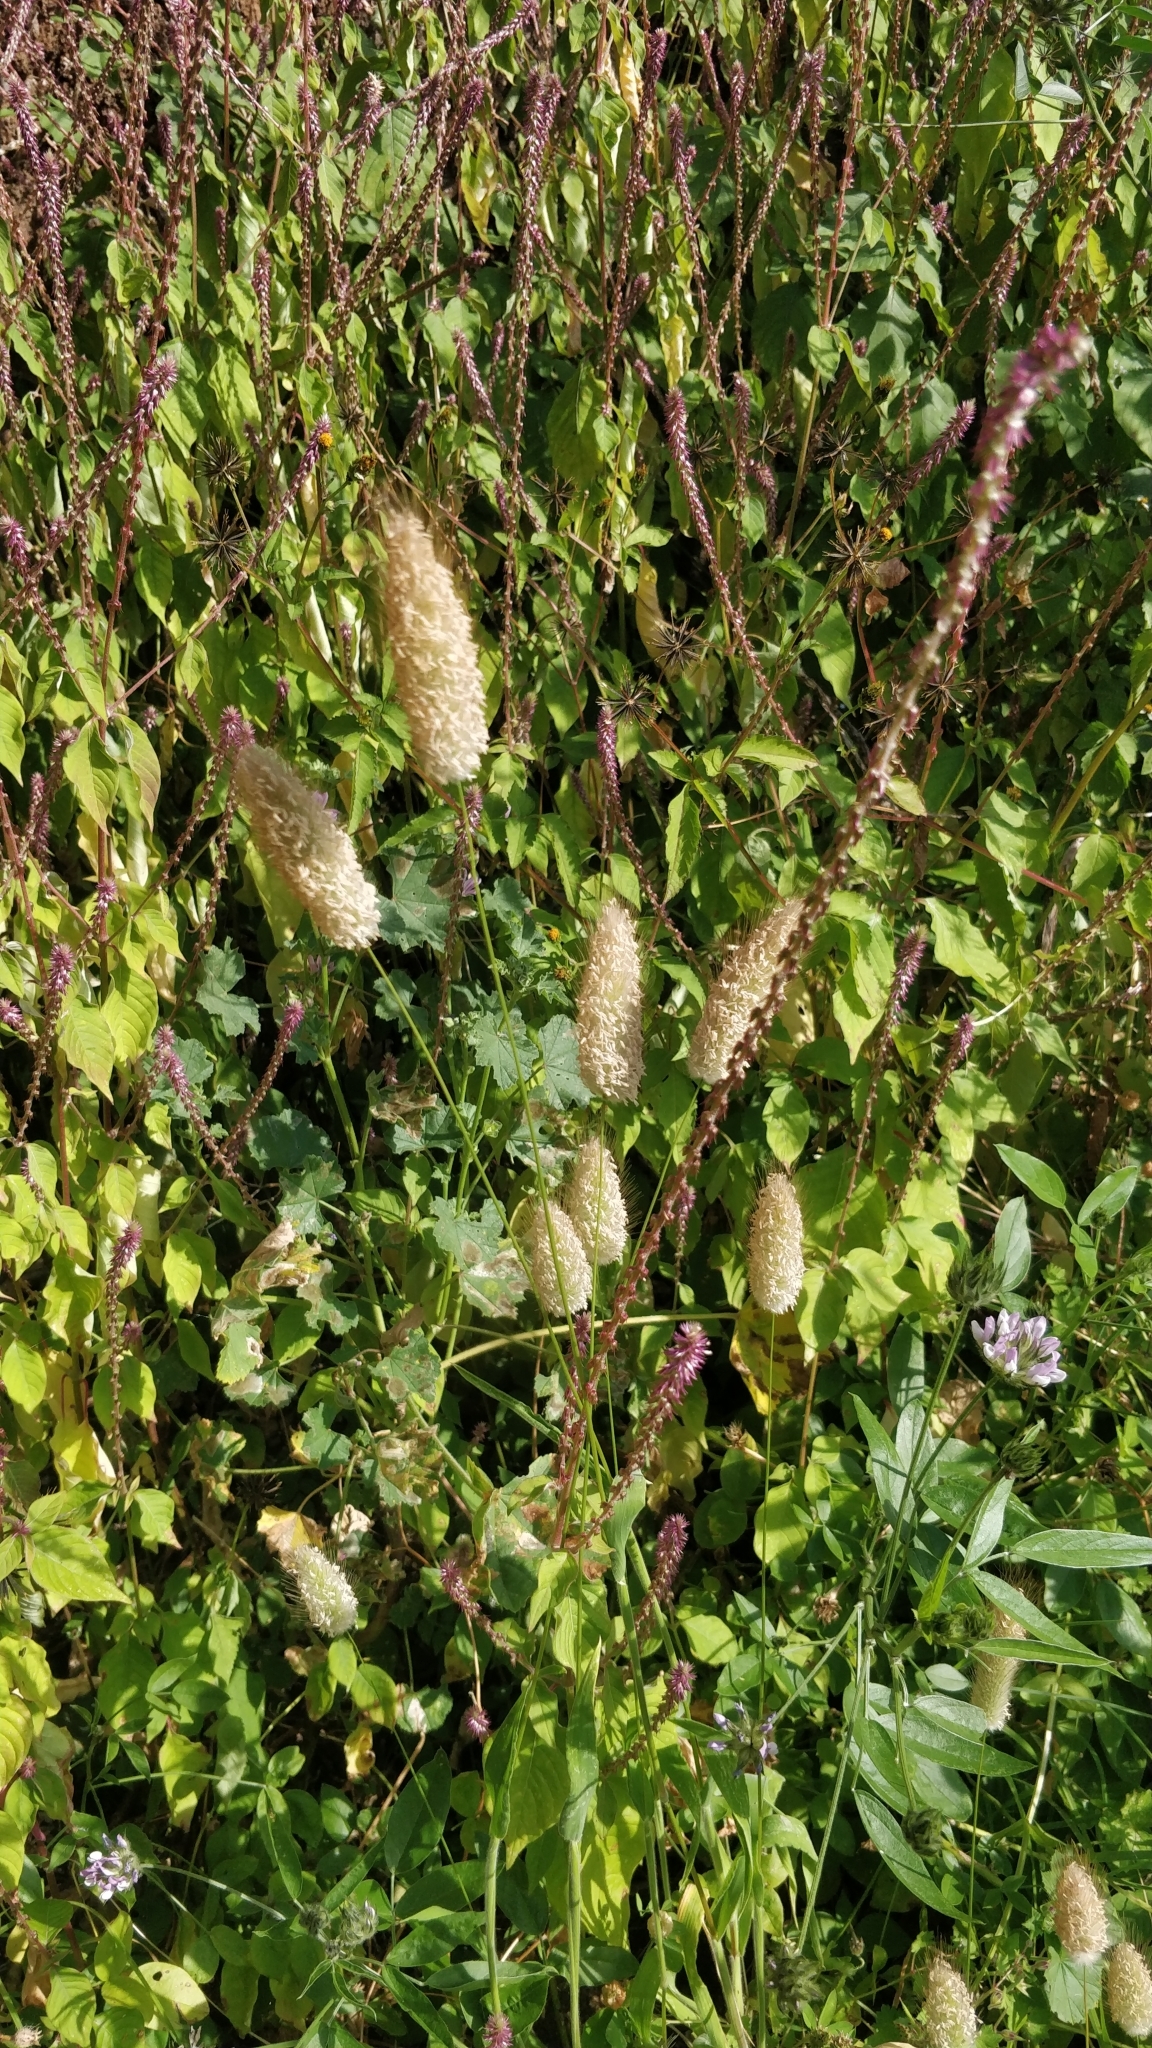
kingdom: Plantae
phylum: Tracheophyta
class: Liliopsida
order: Poales
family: Poaceae
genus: Lagurus
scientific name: Lagurus ovatus
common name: Hare's-tail
